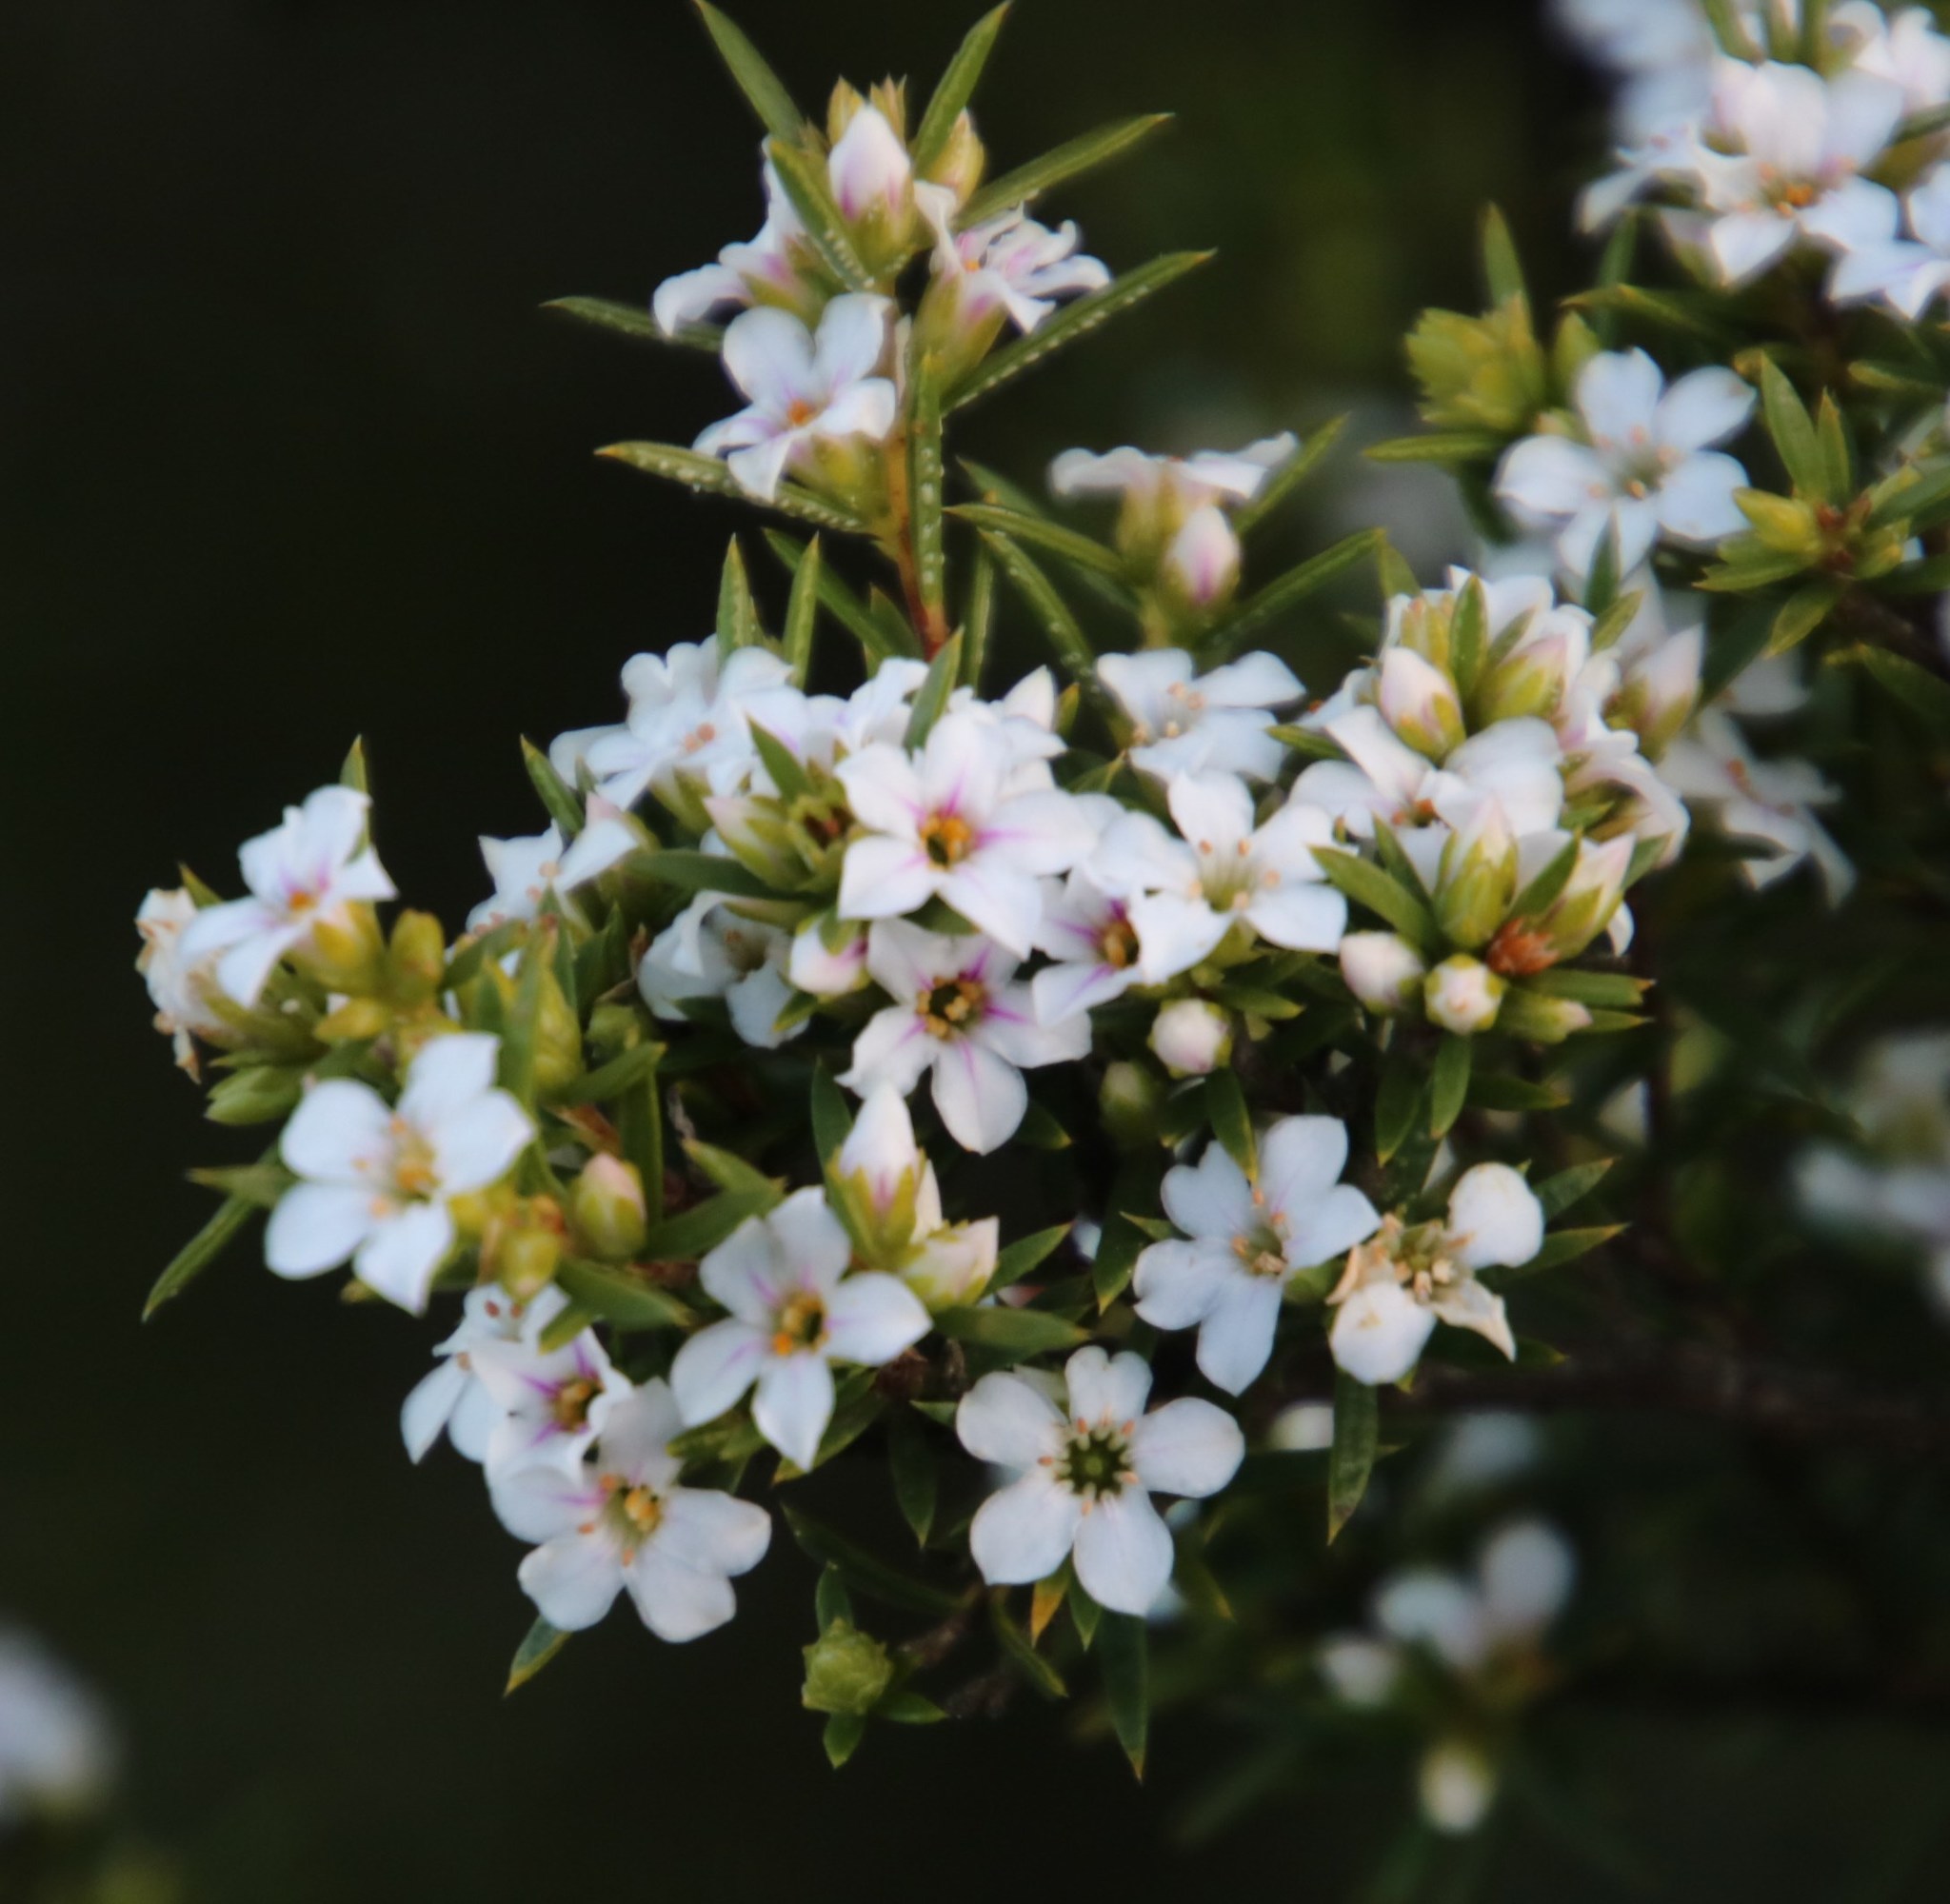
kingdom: Plantae
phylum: Tracheophyta
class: Magnoliopsida
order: Sapindales
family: Rutaceae
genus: Coleonema
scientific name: Coleonema album
